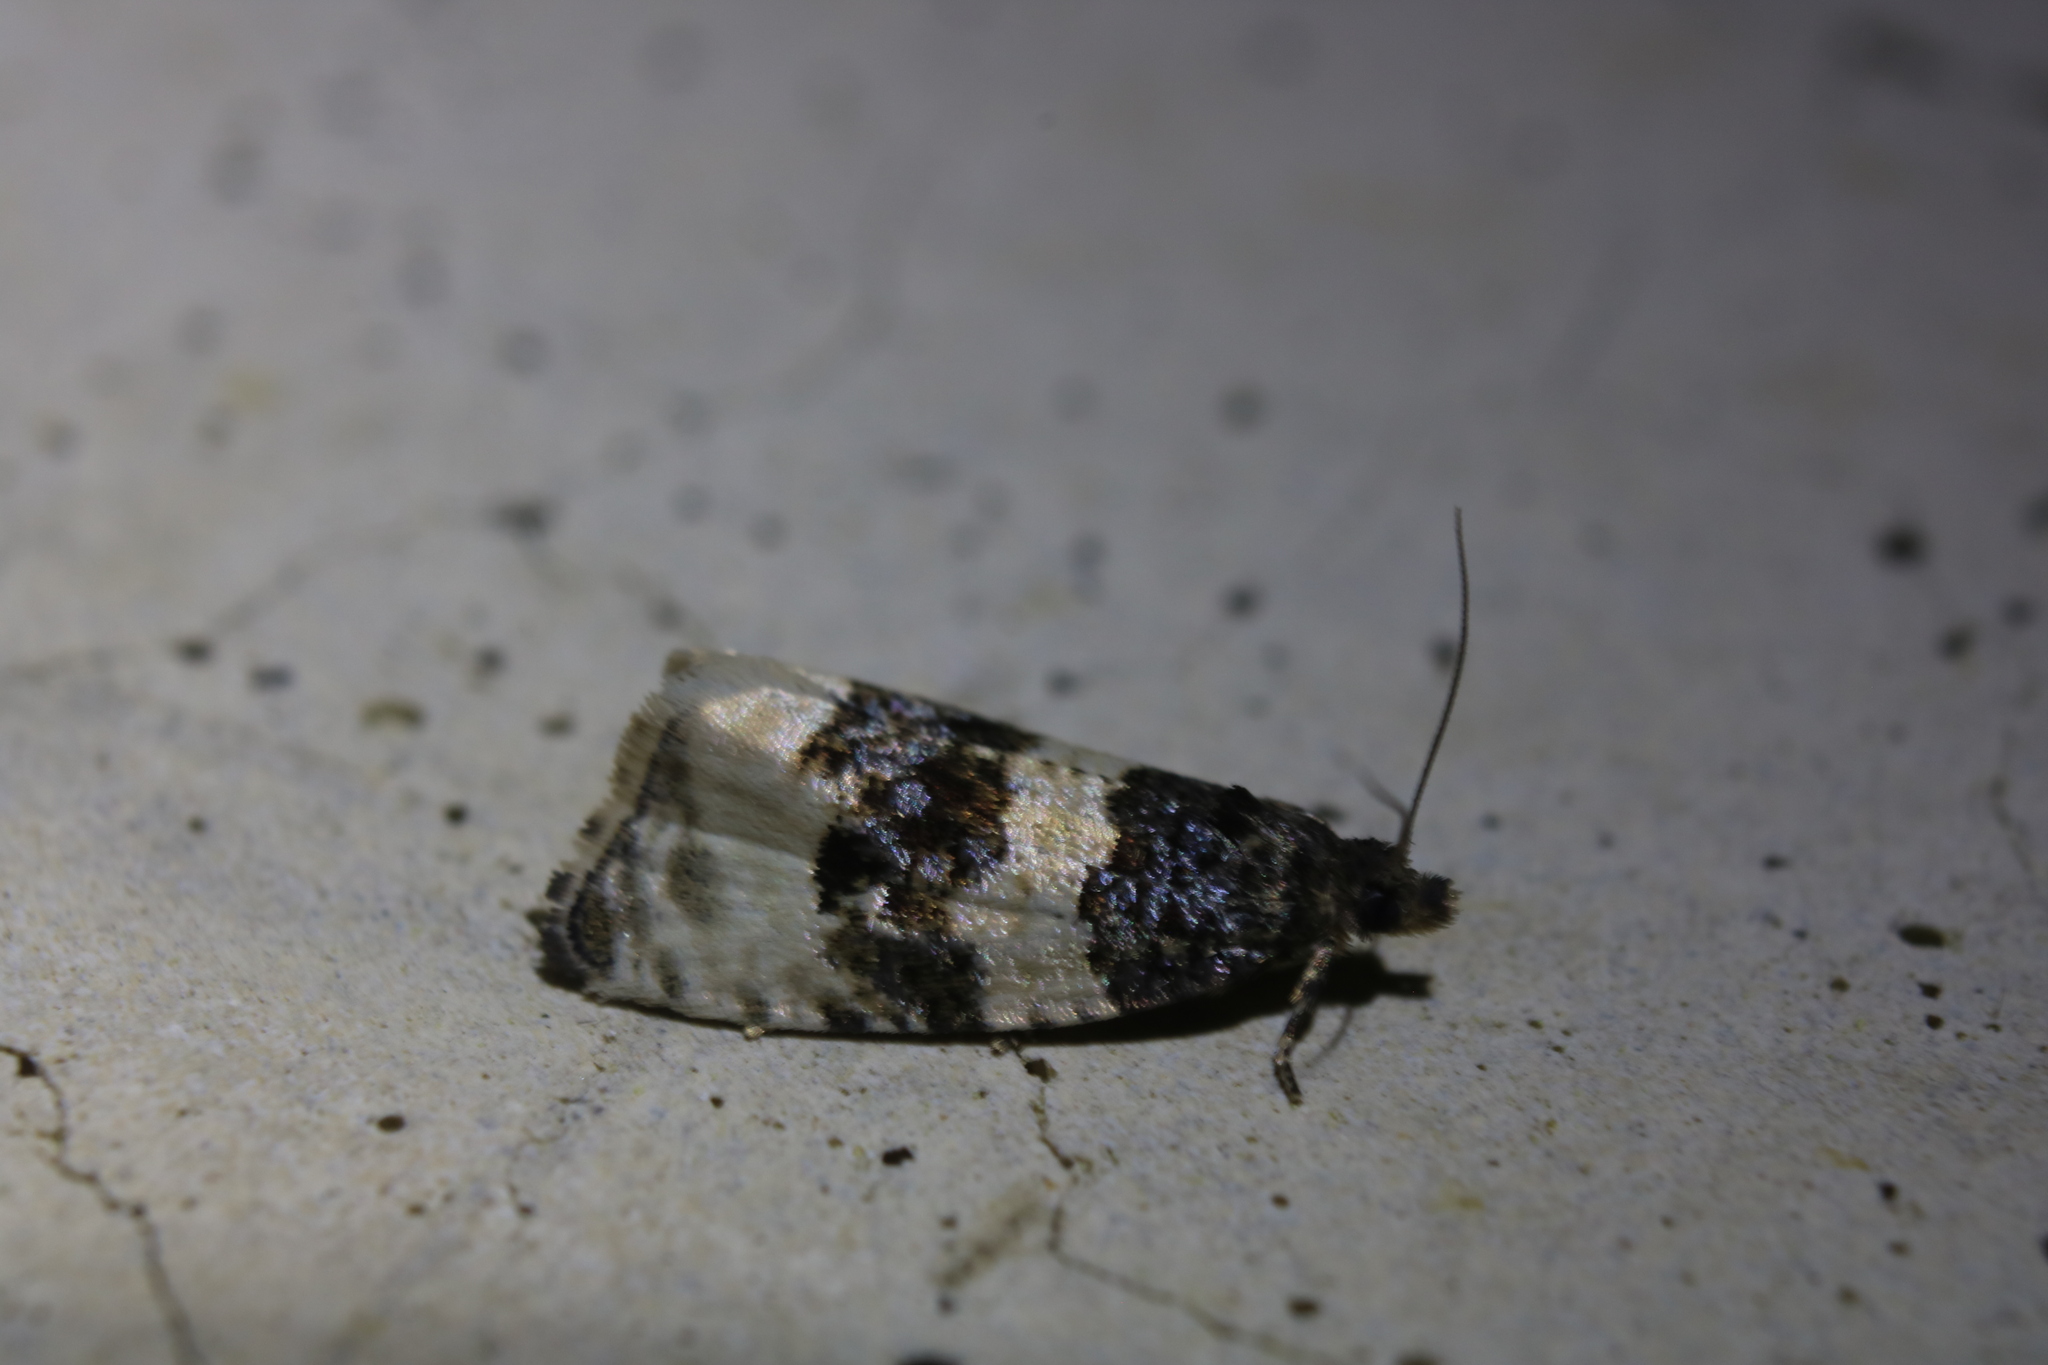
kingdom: Animalia
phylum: Arthropoda
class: Insecta
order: Lepidoptera
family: Tortricidae
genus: Olethreutes
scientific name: Olethreutes bipartitana
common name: Divided olethreutes moth
